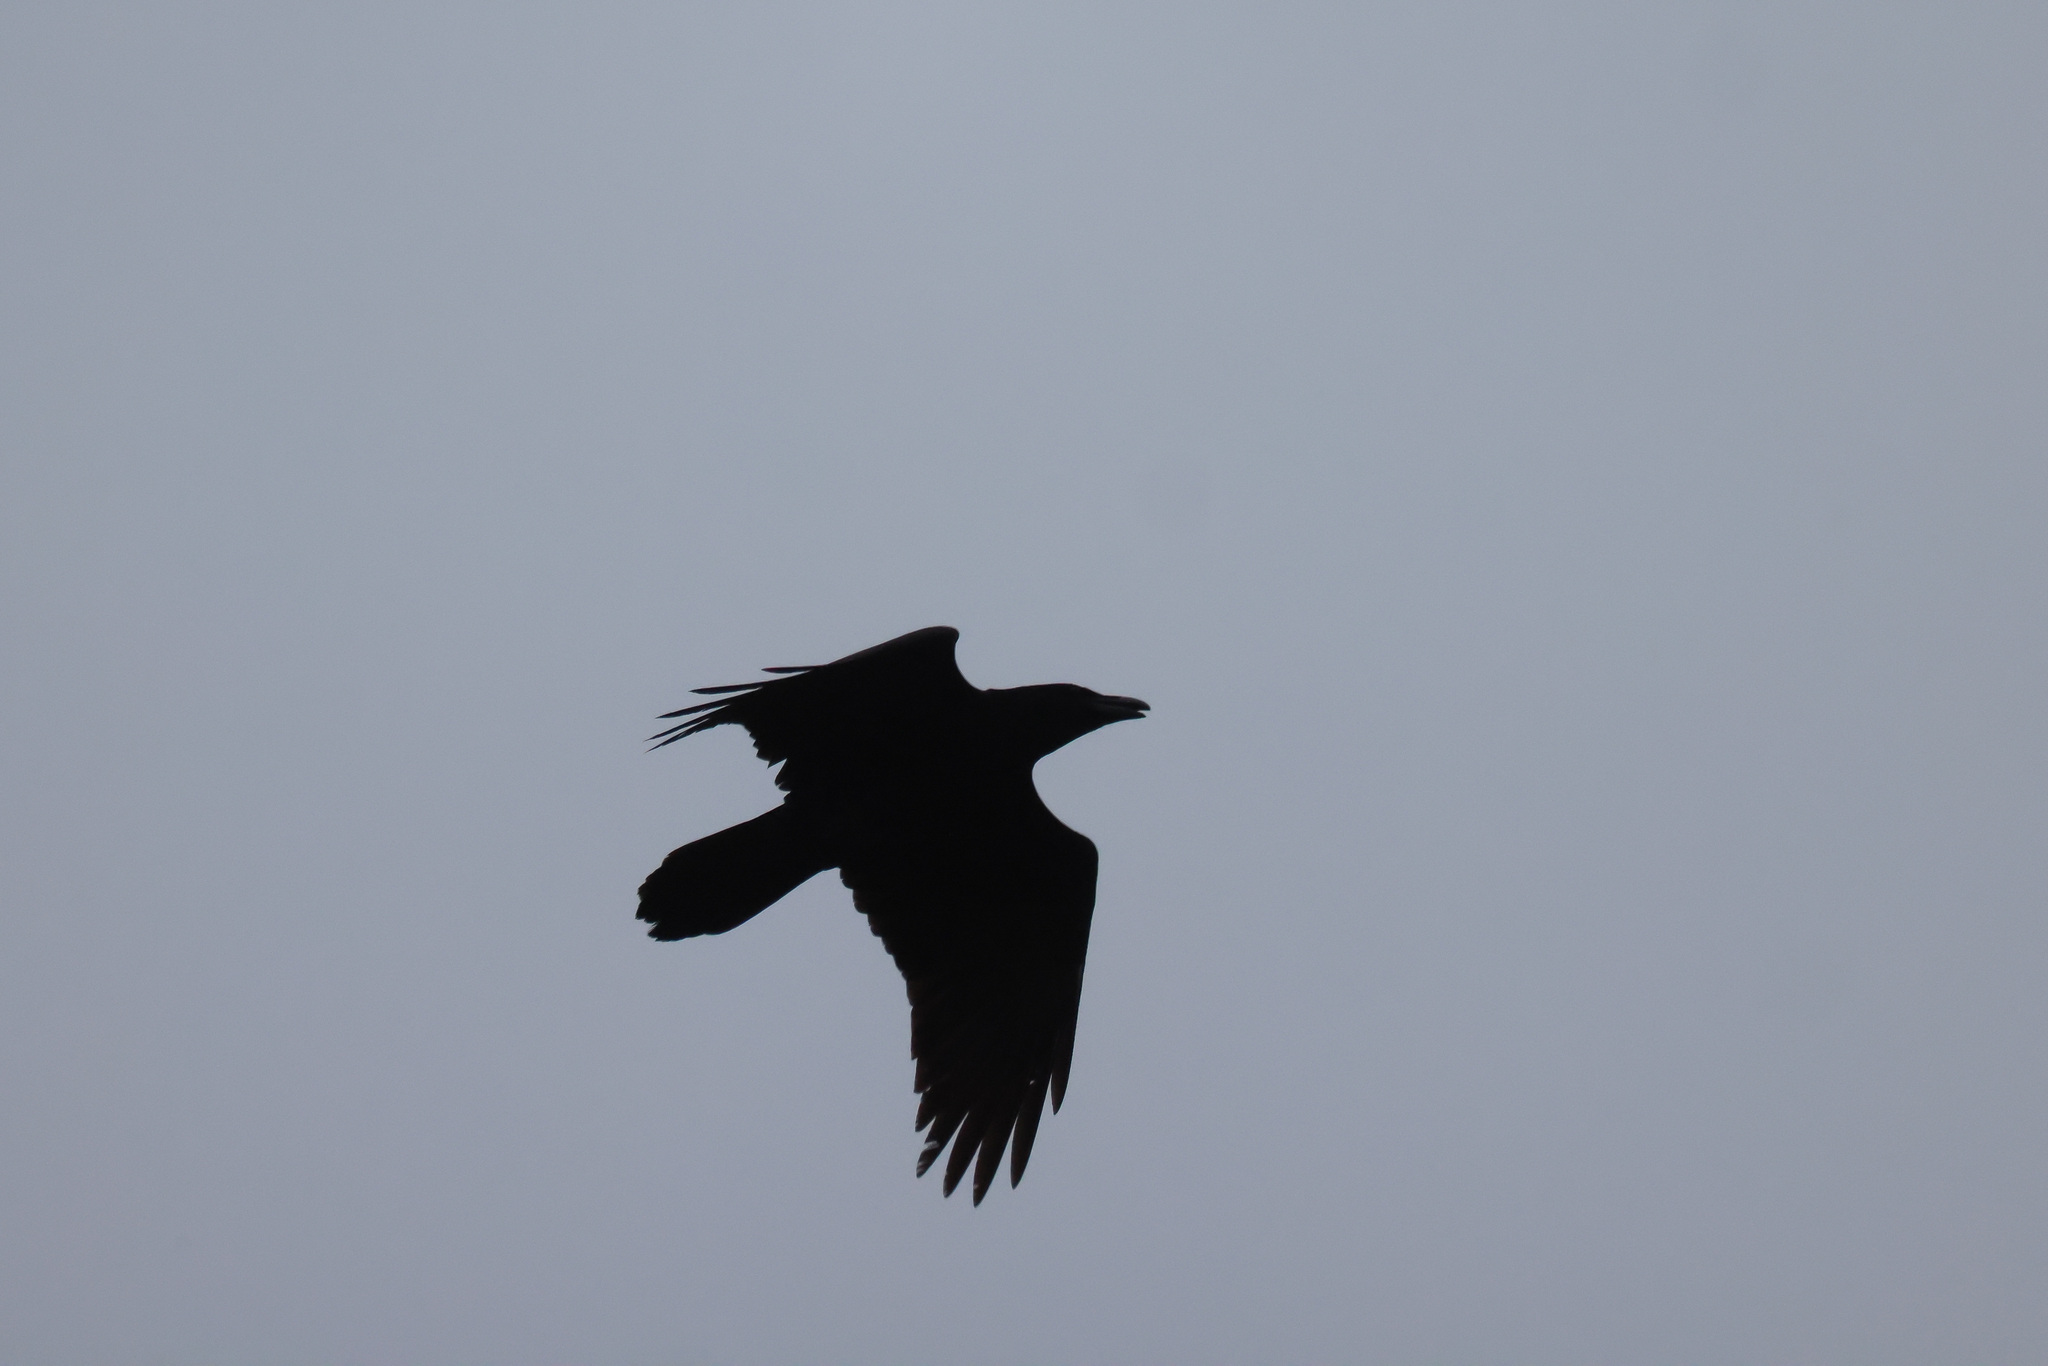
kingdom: Animalia
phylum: Chordata
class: Aves
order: Passeriformes
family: Corvidae
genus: Corvus
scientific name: Corvus corax
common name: Common raven
